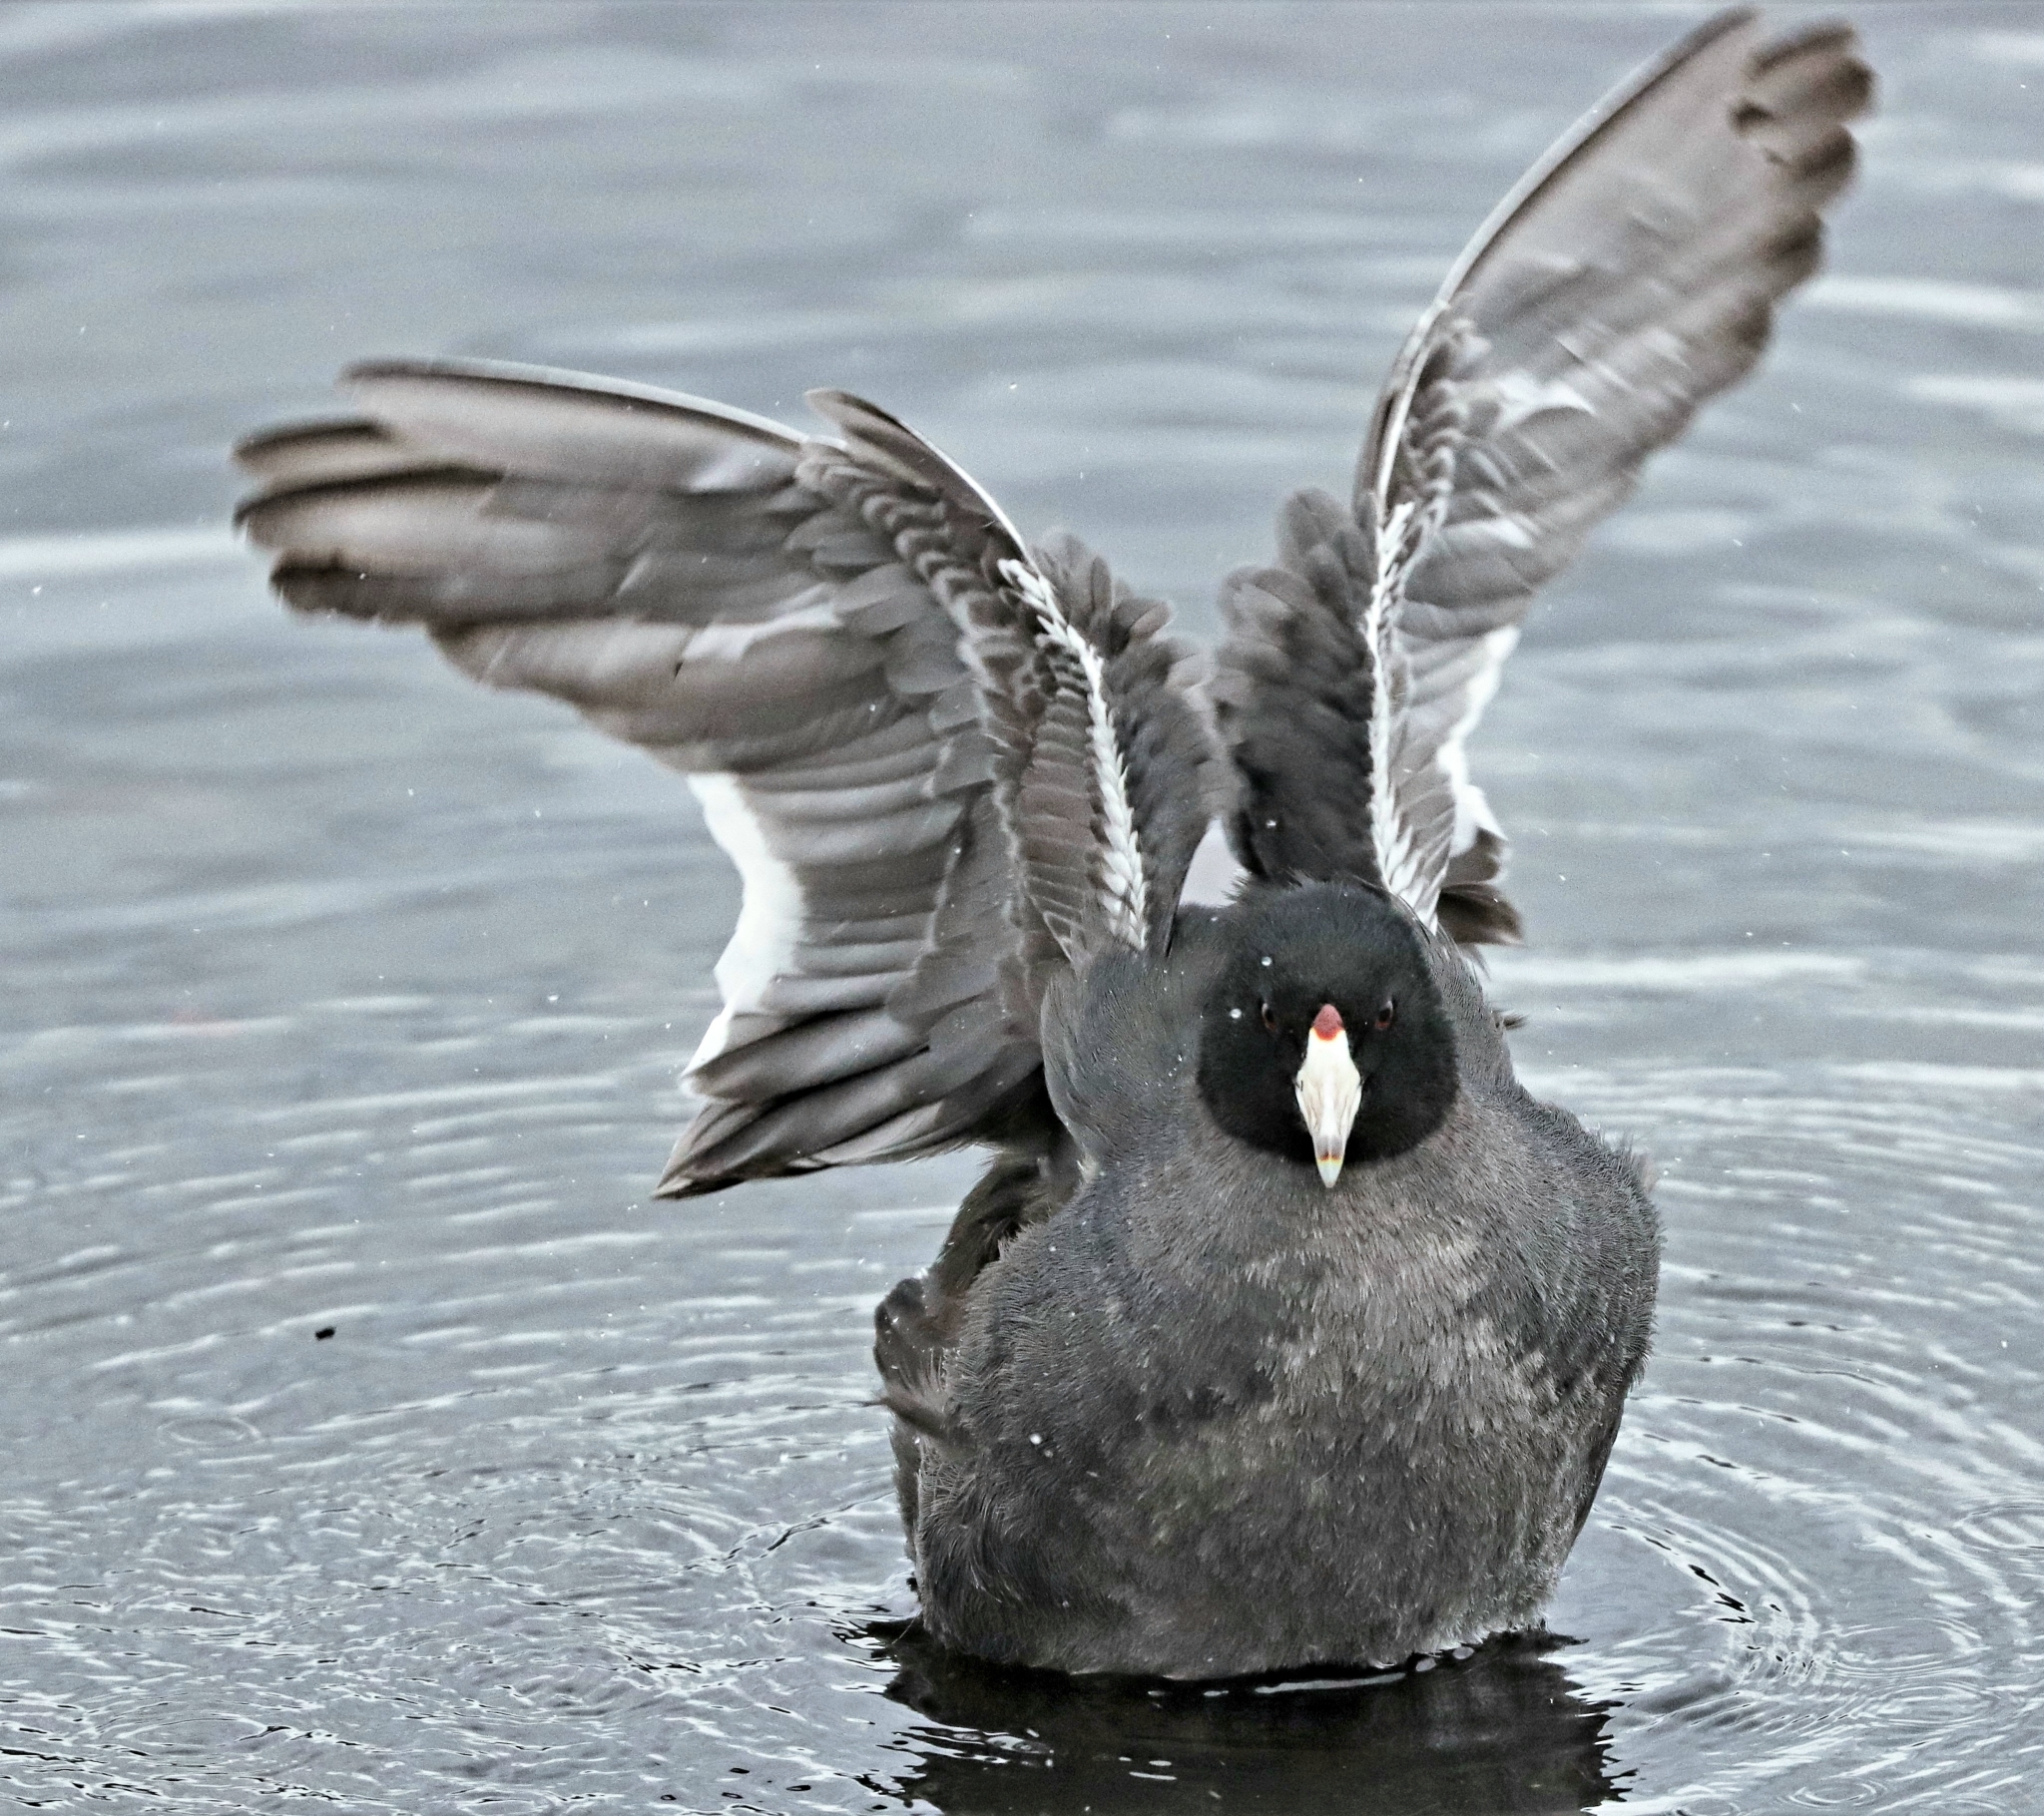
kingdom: Animalia
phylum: Chordata
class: Aves
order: Gruiformes
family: Rallidae
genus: Fulica
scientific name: Fulica americana
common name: American coot
